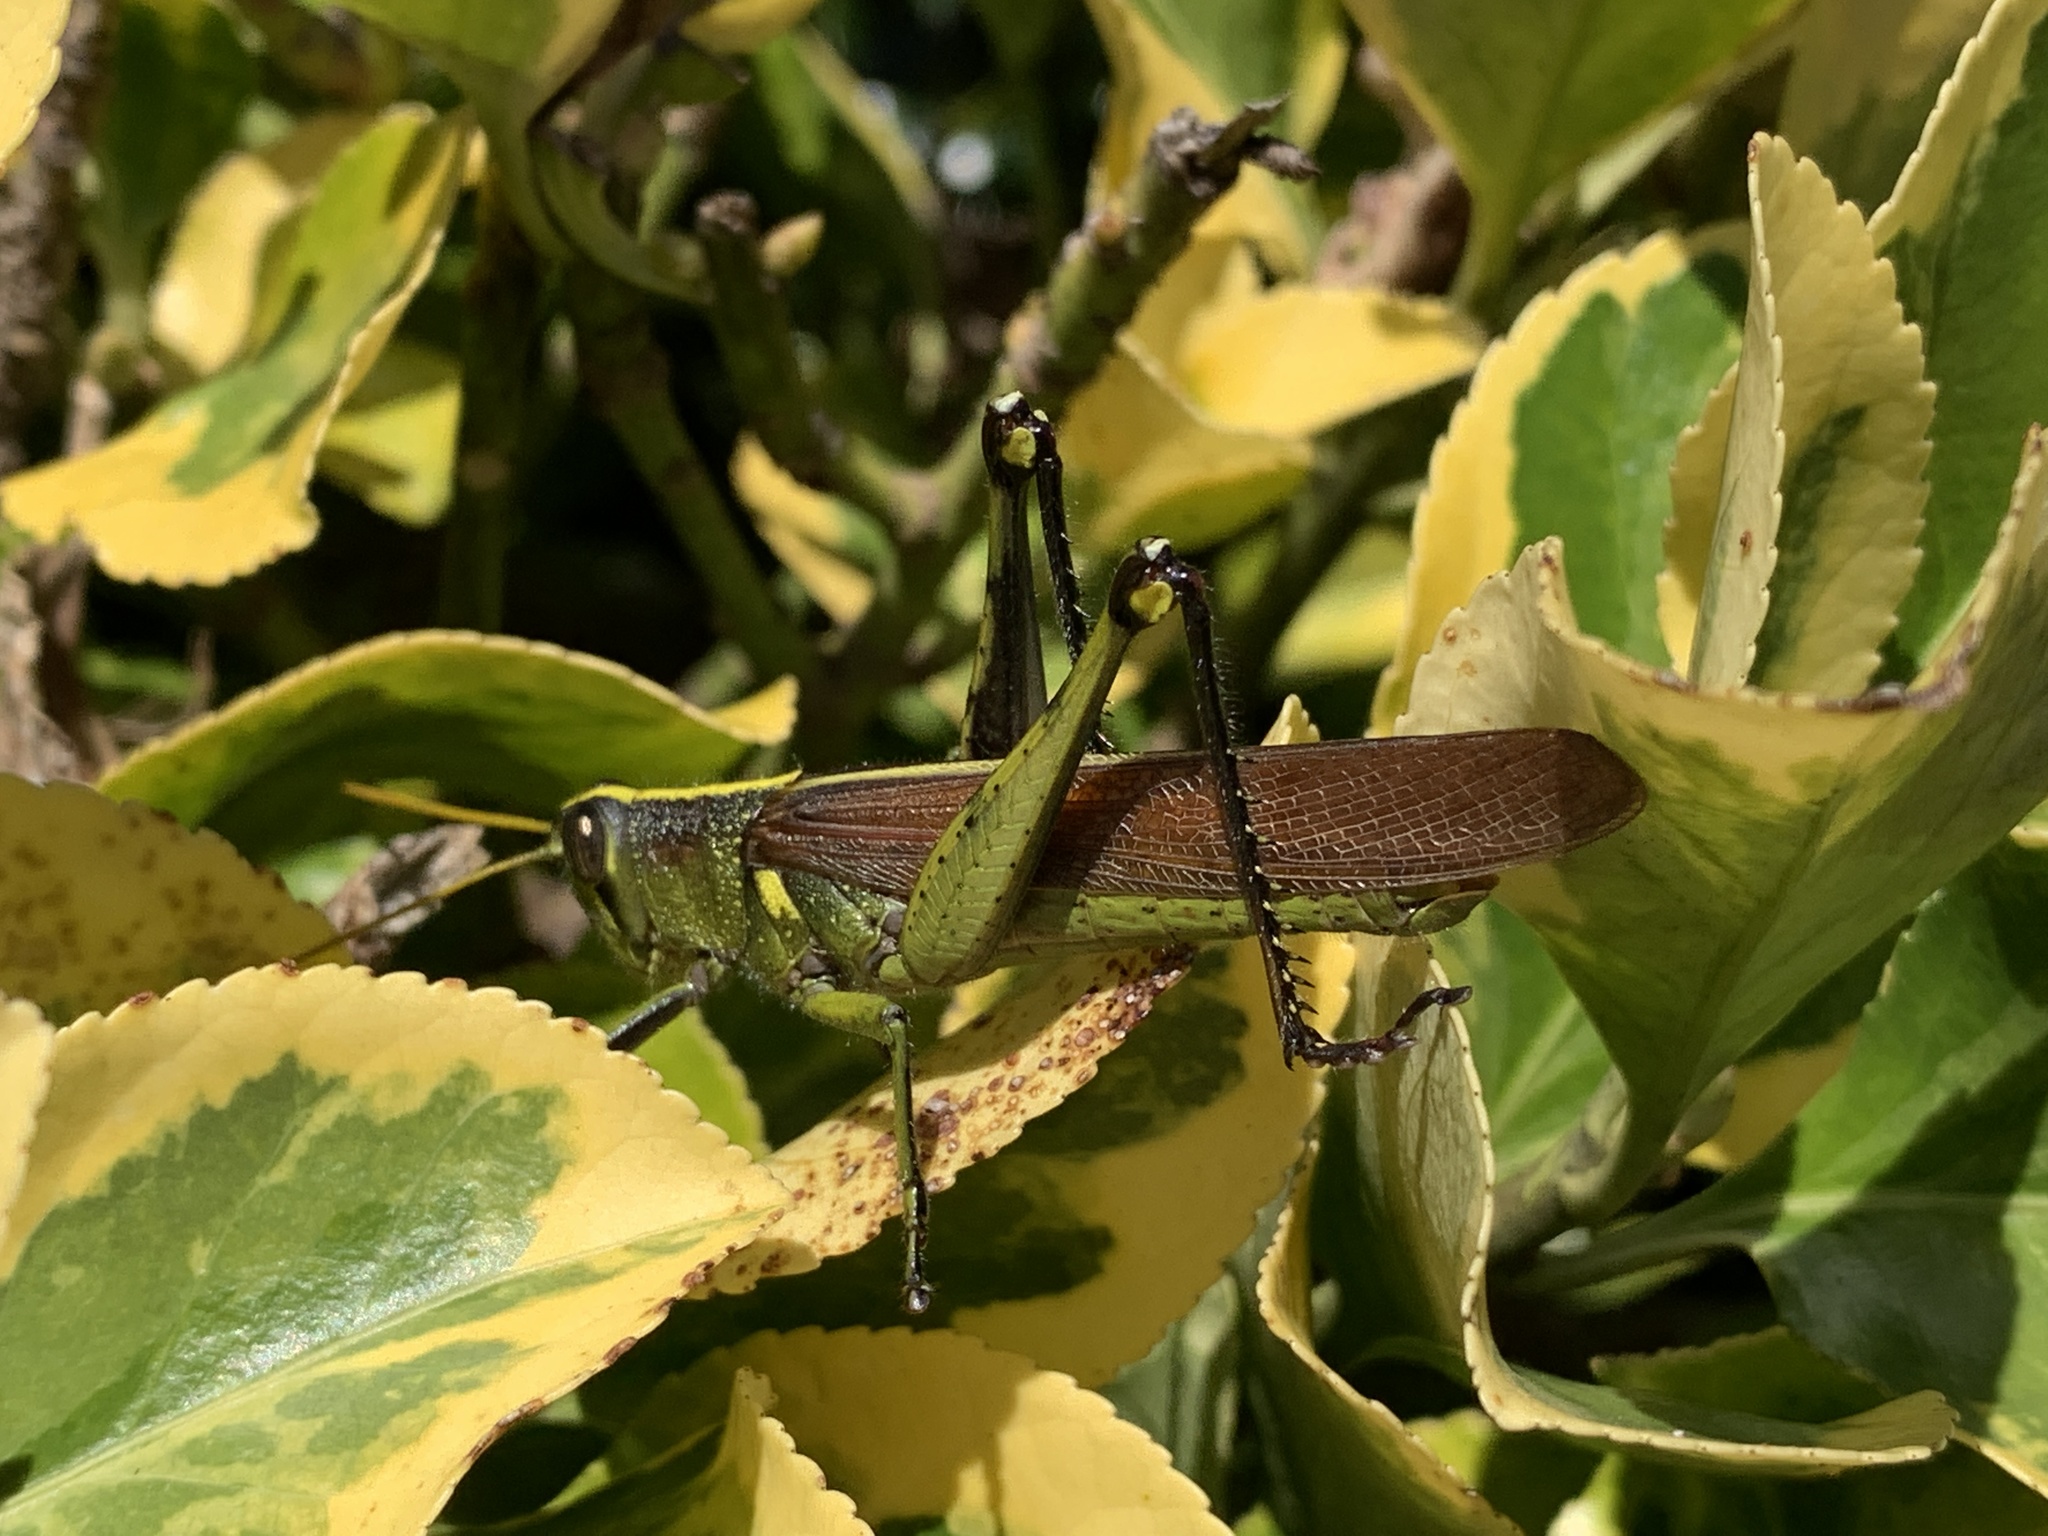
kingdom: Animalia
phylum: Arthropoda
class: Insecta
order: Orthoptera
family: Acrididae
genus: Schistocerca
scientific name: Schistocerca obscura
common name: Obscure bird grasshopper
